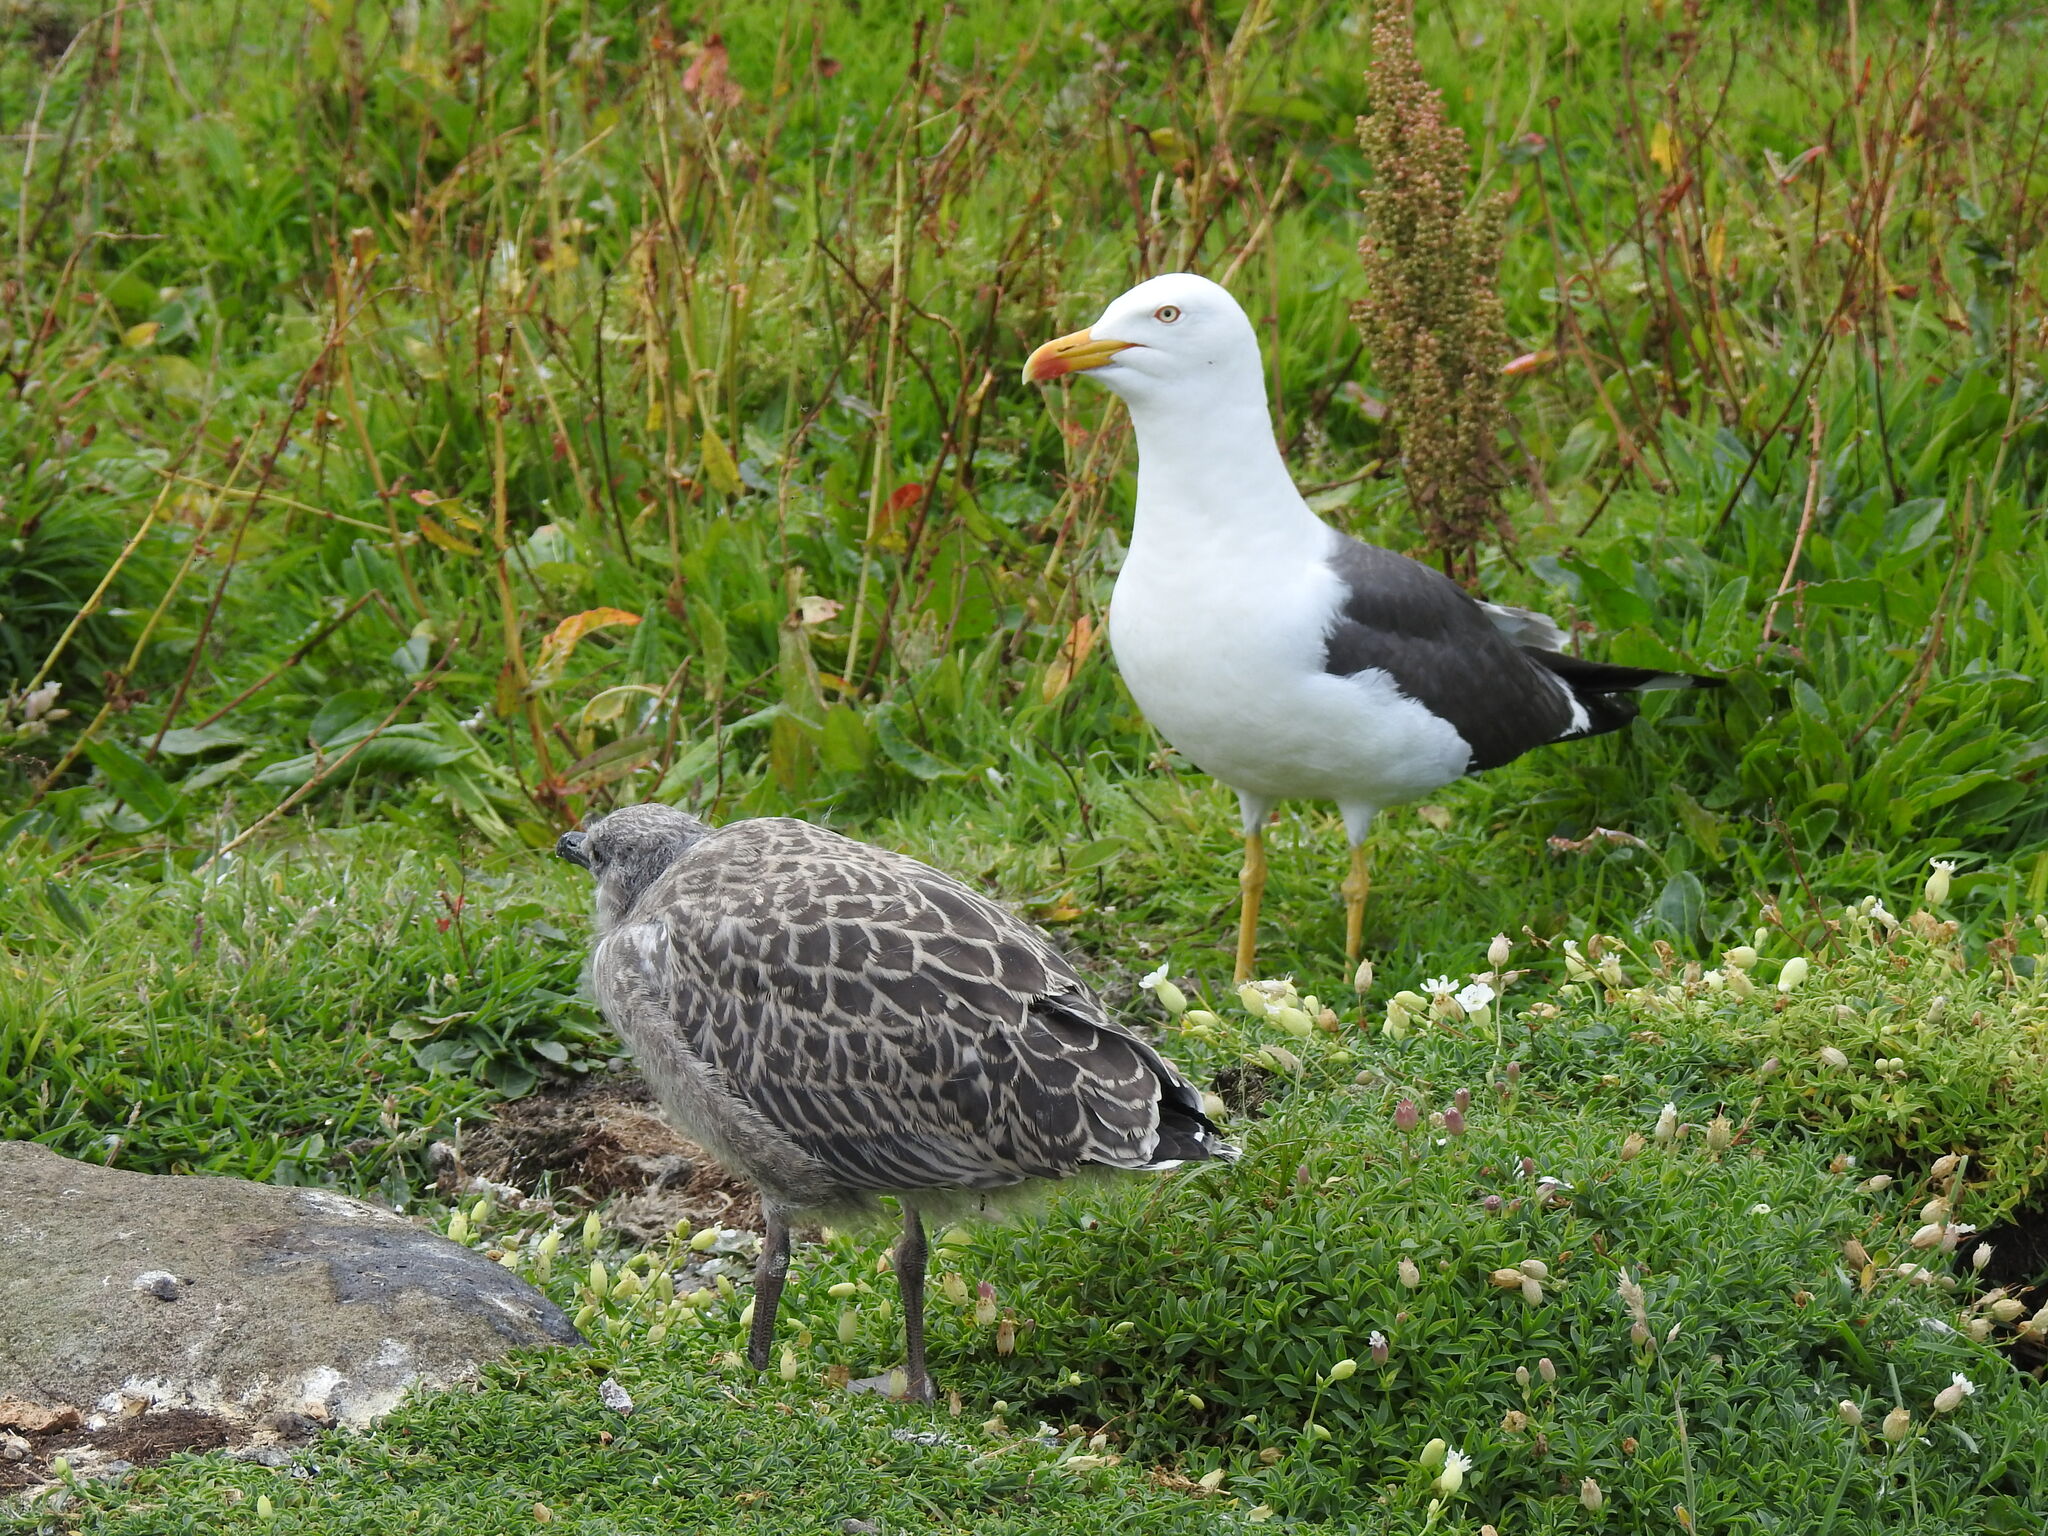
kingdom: Animalia
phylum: Chordata
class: Aves
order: Charadriiformes
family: Laridae
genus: Larus
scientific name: Larus fuscus
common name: Lesser black-backed gull
